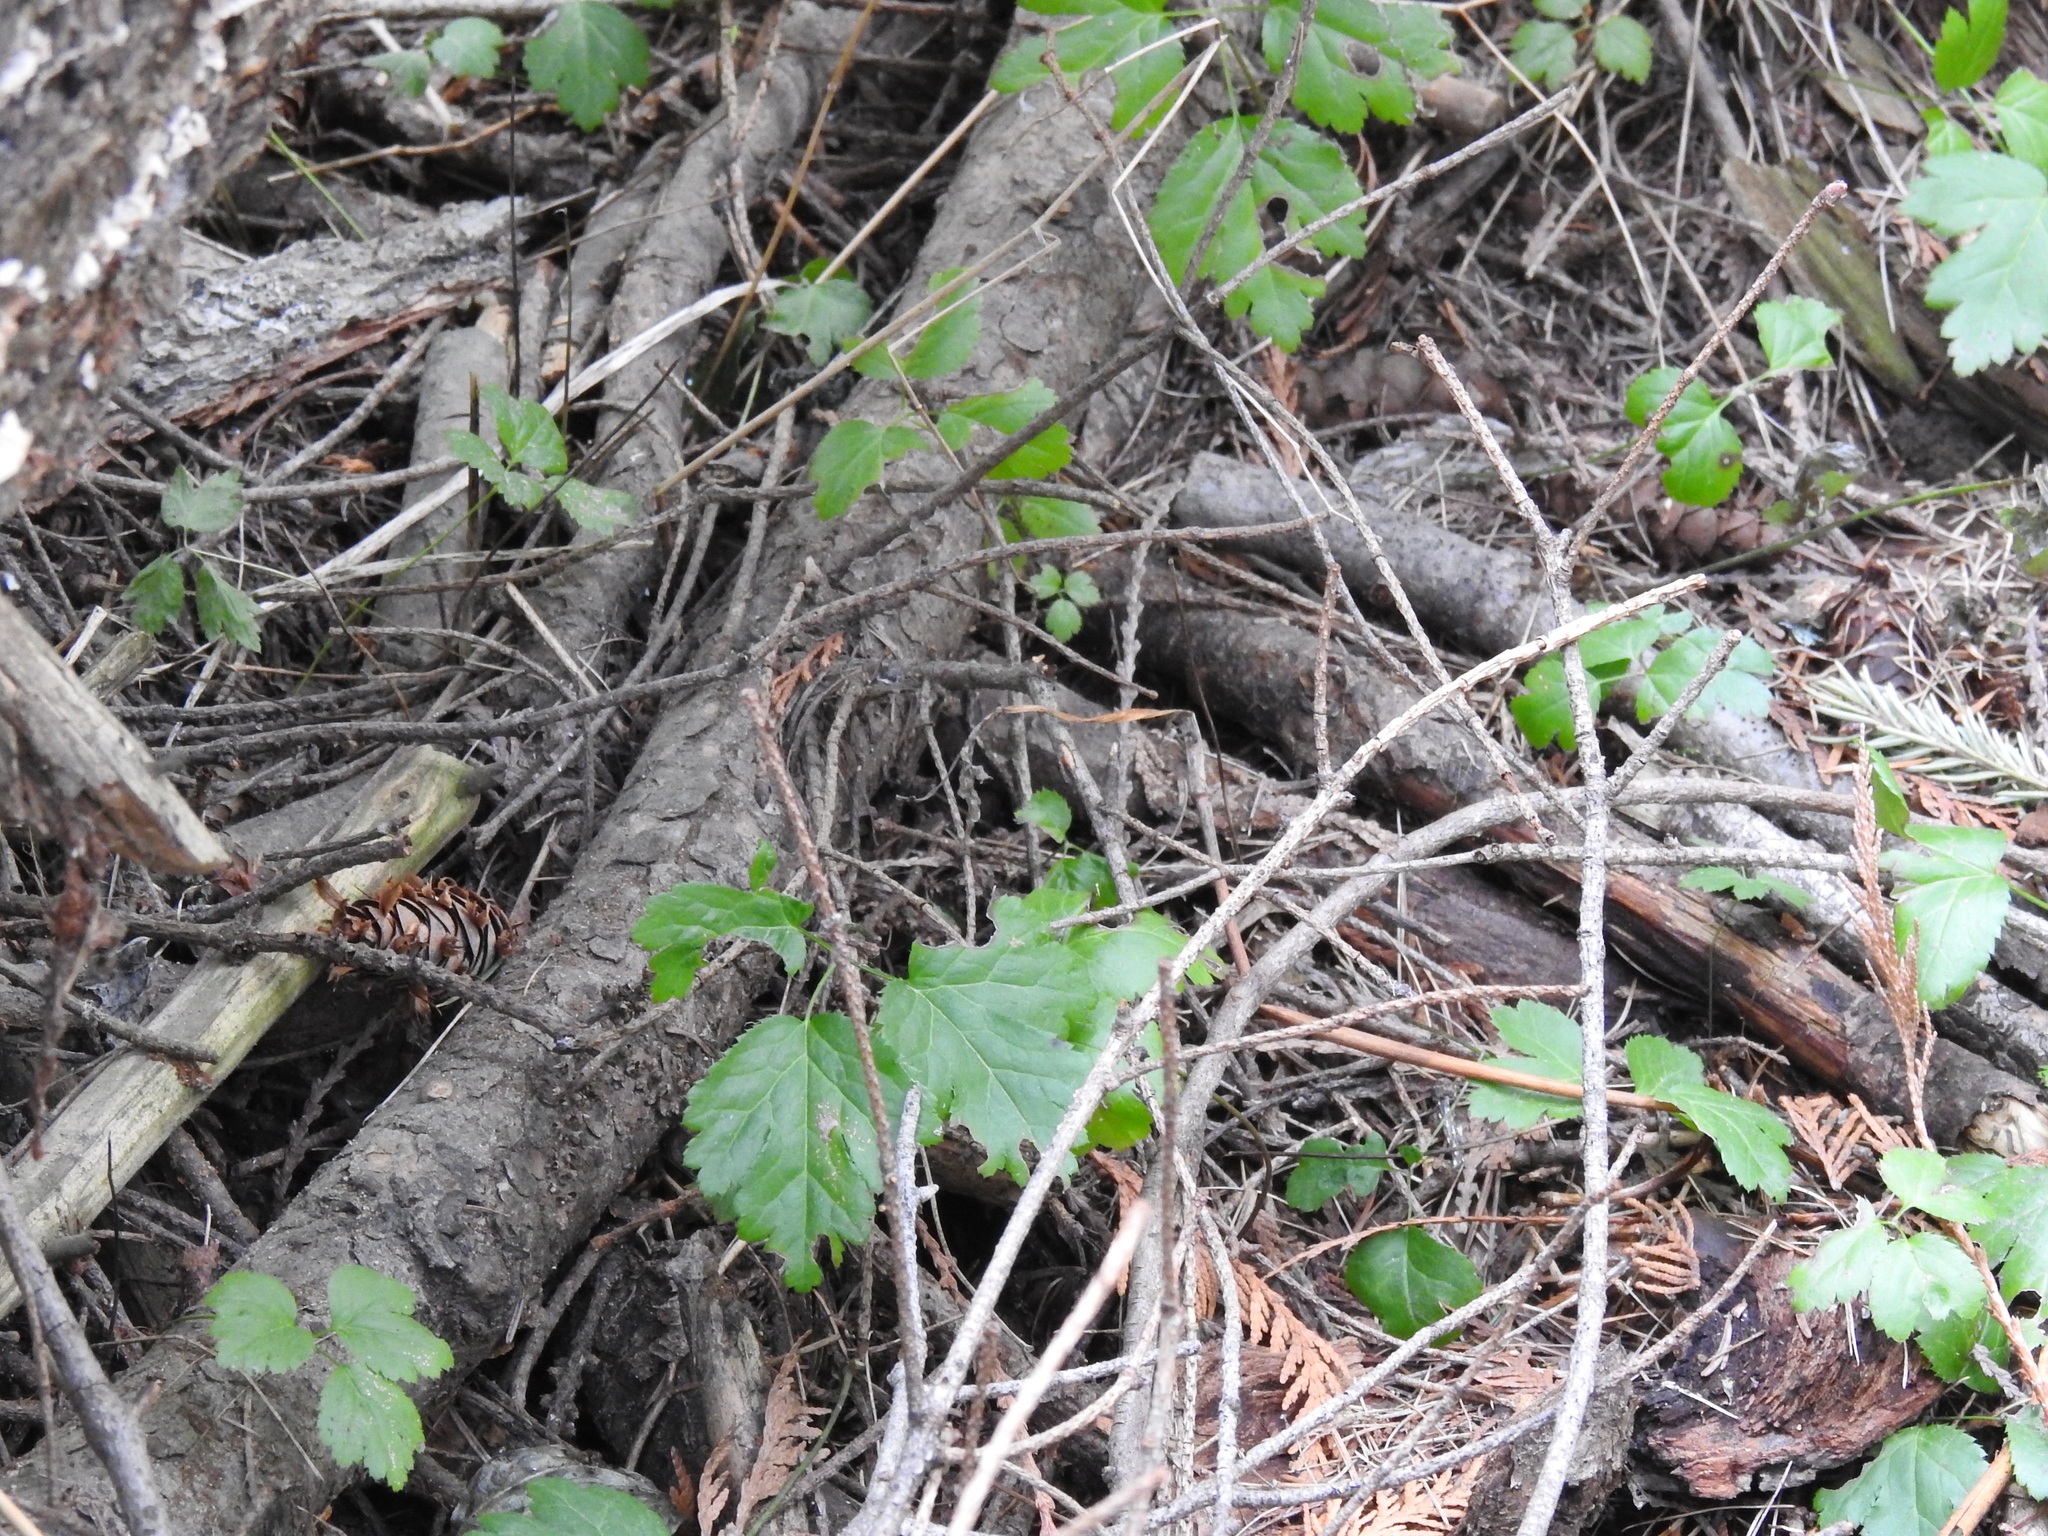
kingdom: Plantae
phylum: Tracheophyta
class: Magnoliopsida
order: Ranunculales
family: Ranunculaceae
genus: Coptis
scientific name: Coptis occidentalis
